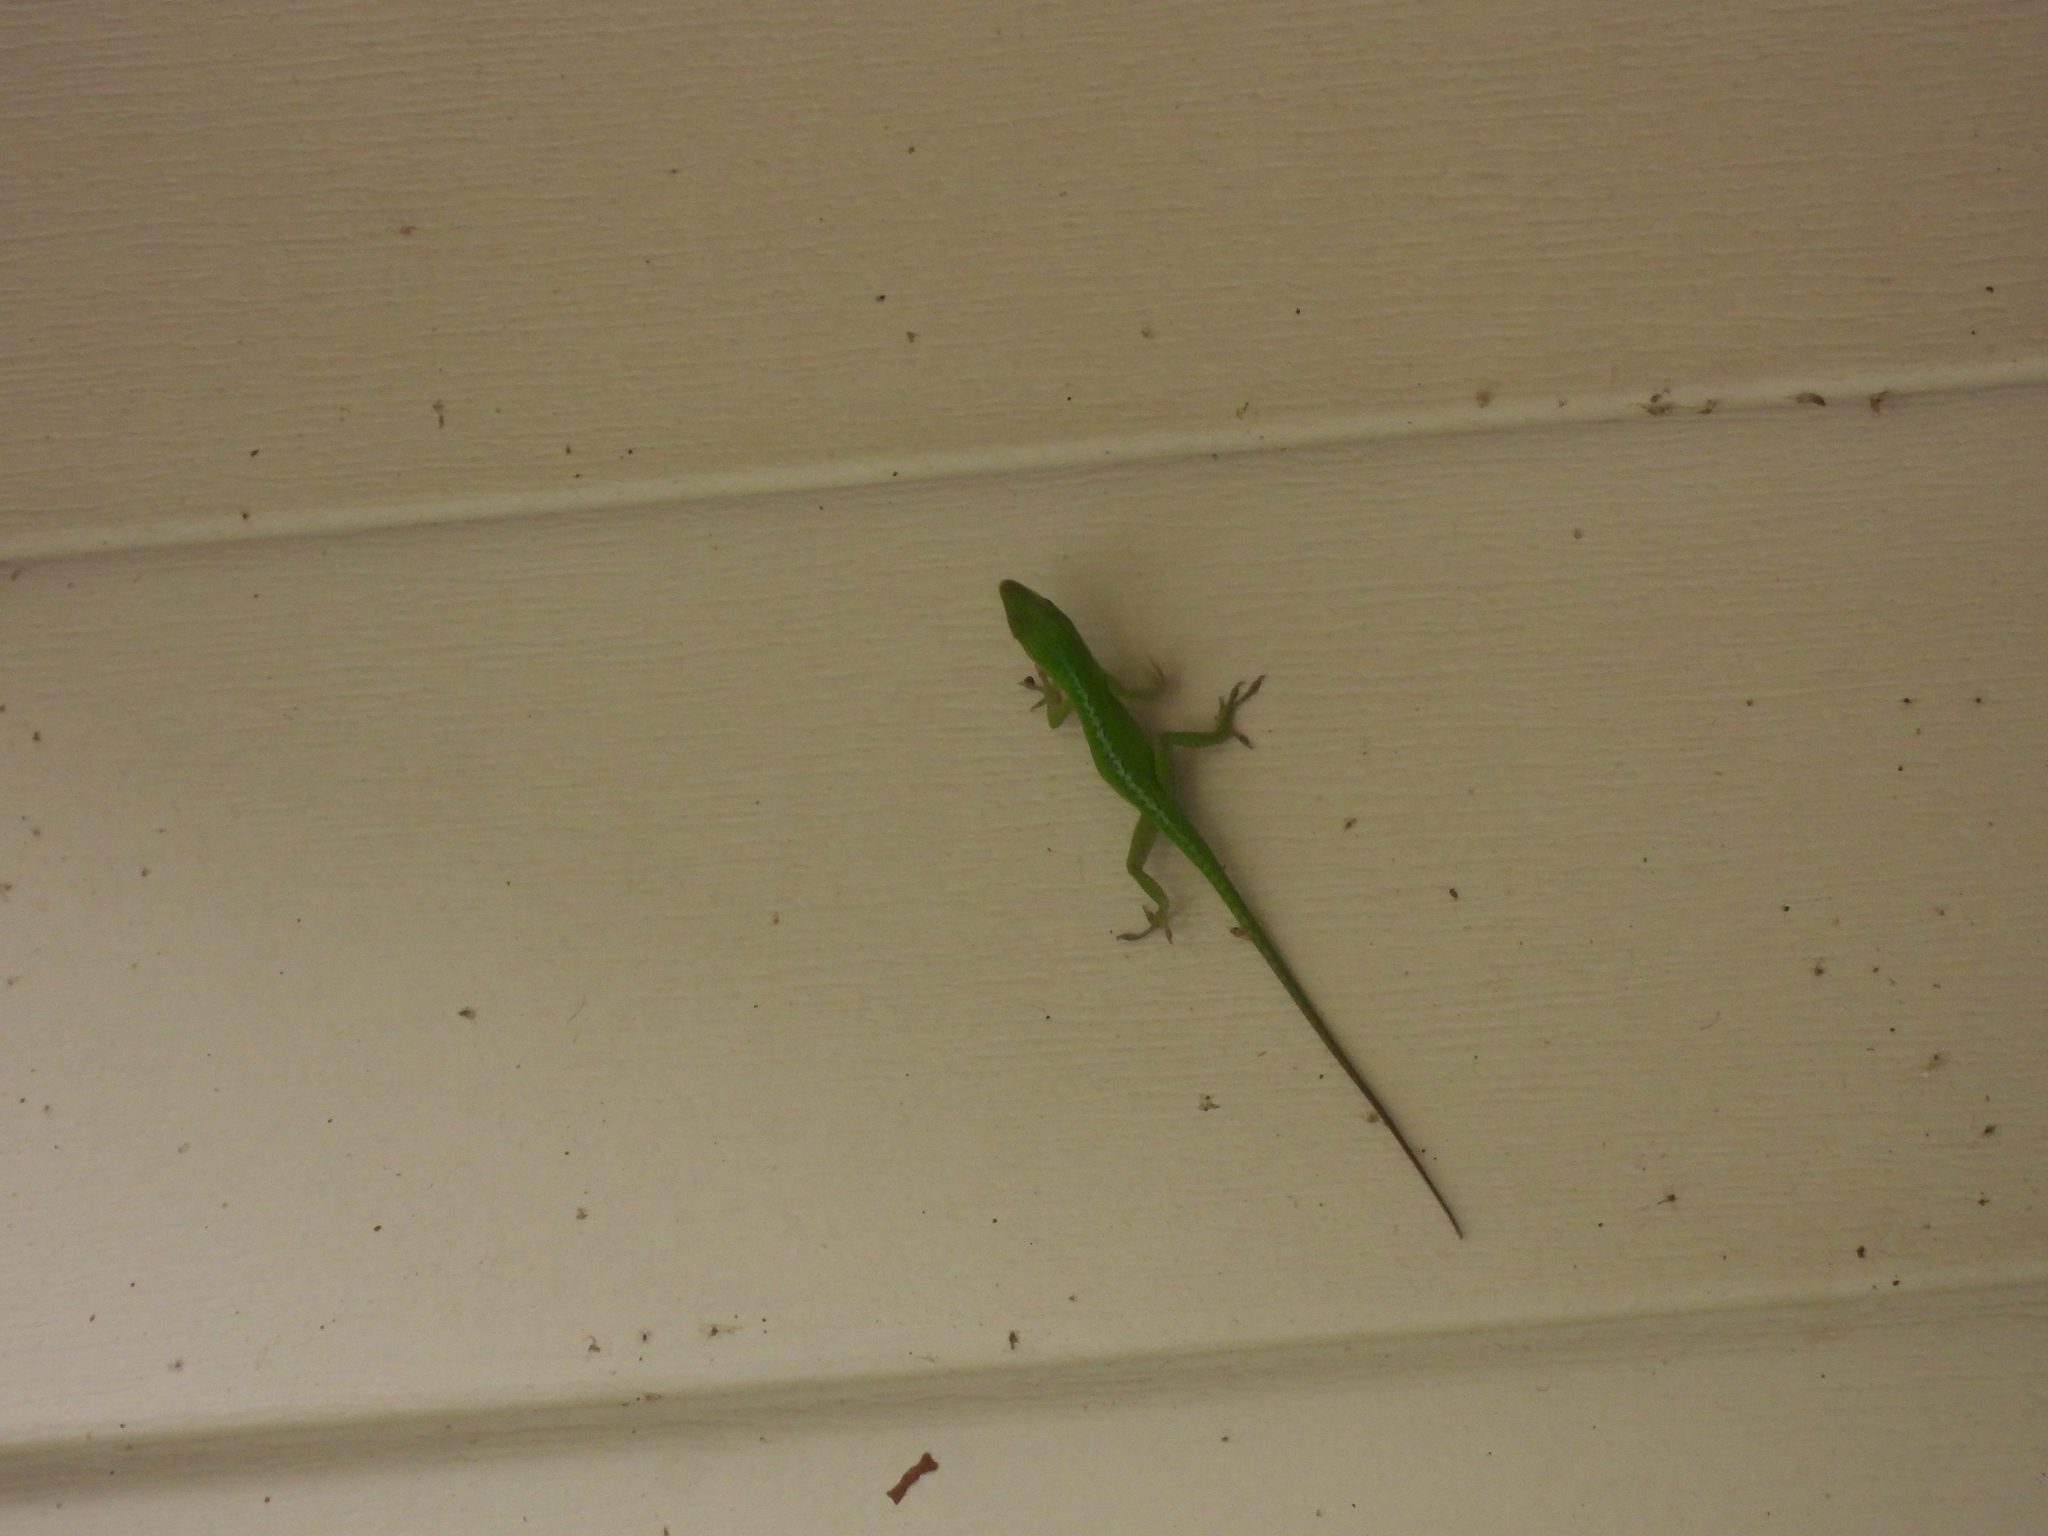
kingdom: Animalia
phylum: Chordata
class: Squamata
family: Dactyloidae
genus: Anolis
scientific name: Anolis carolinensis
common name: Green anole
